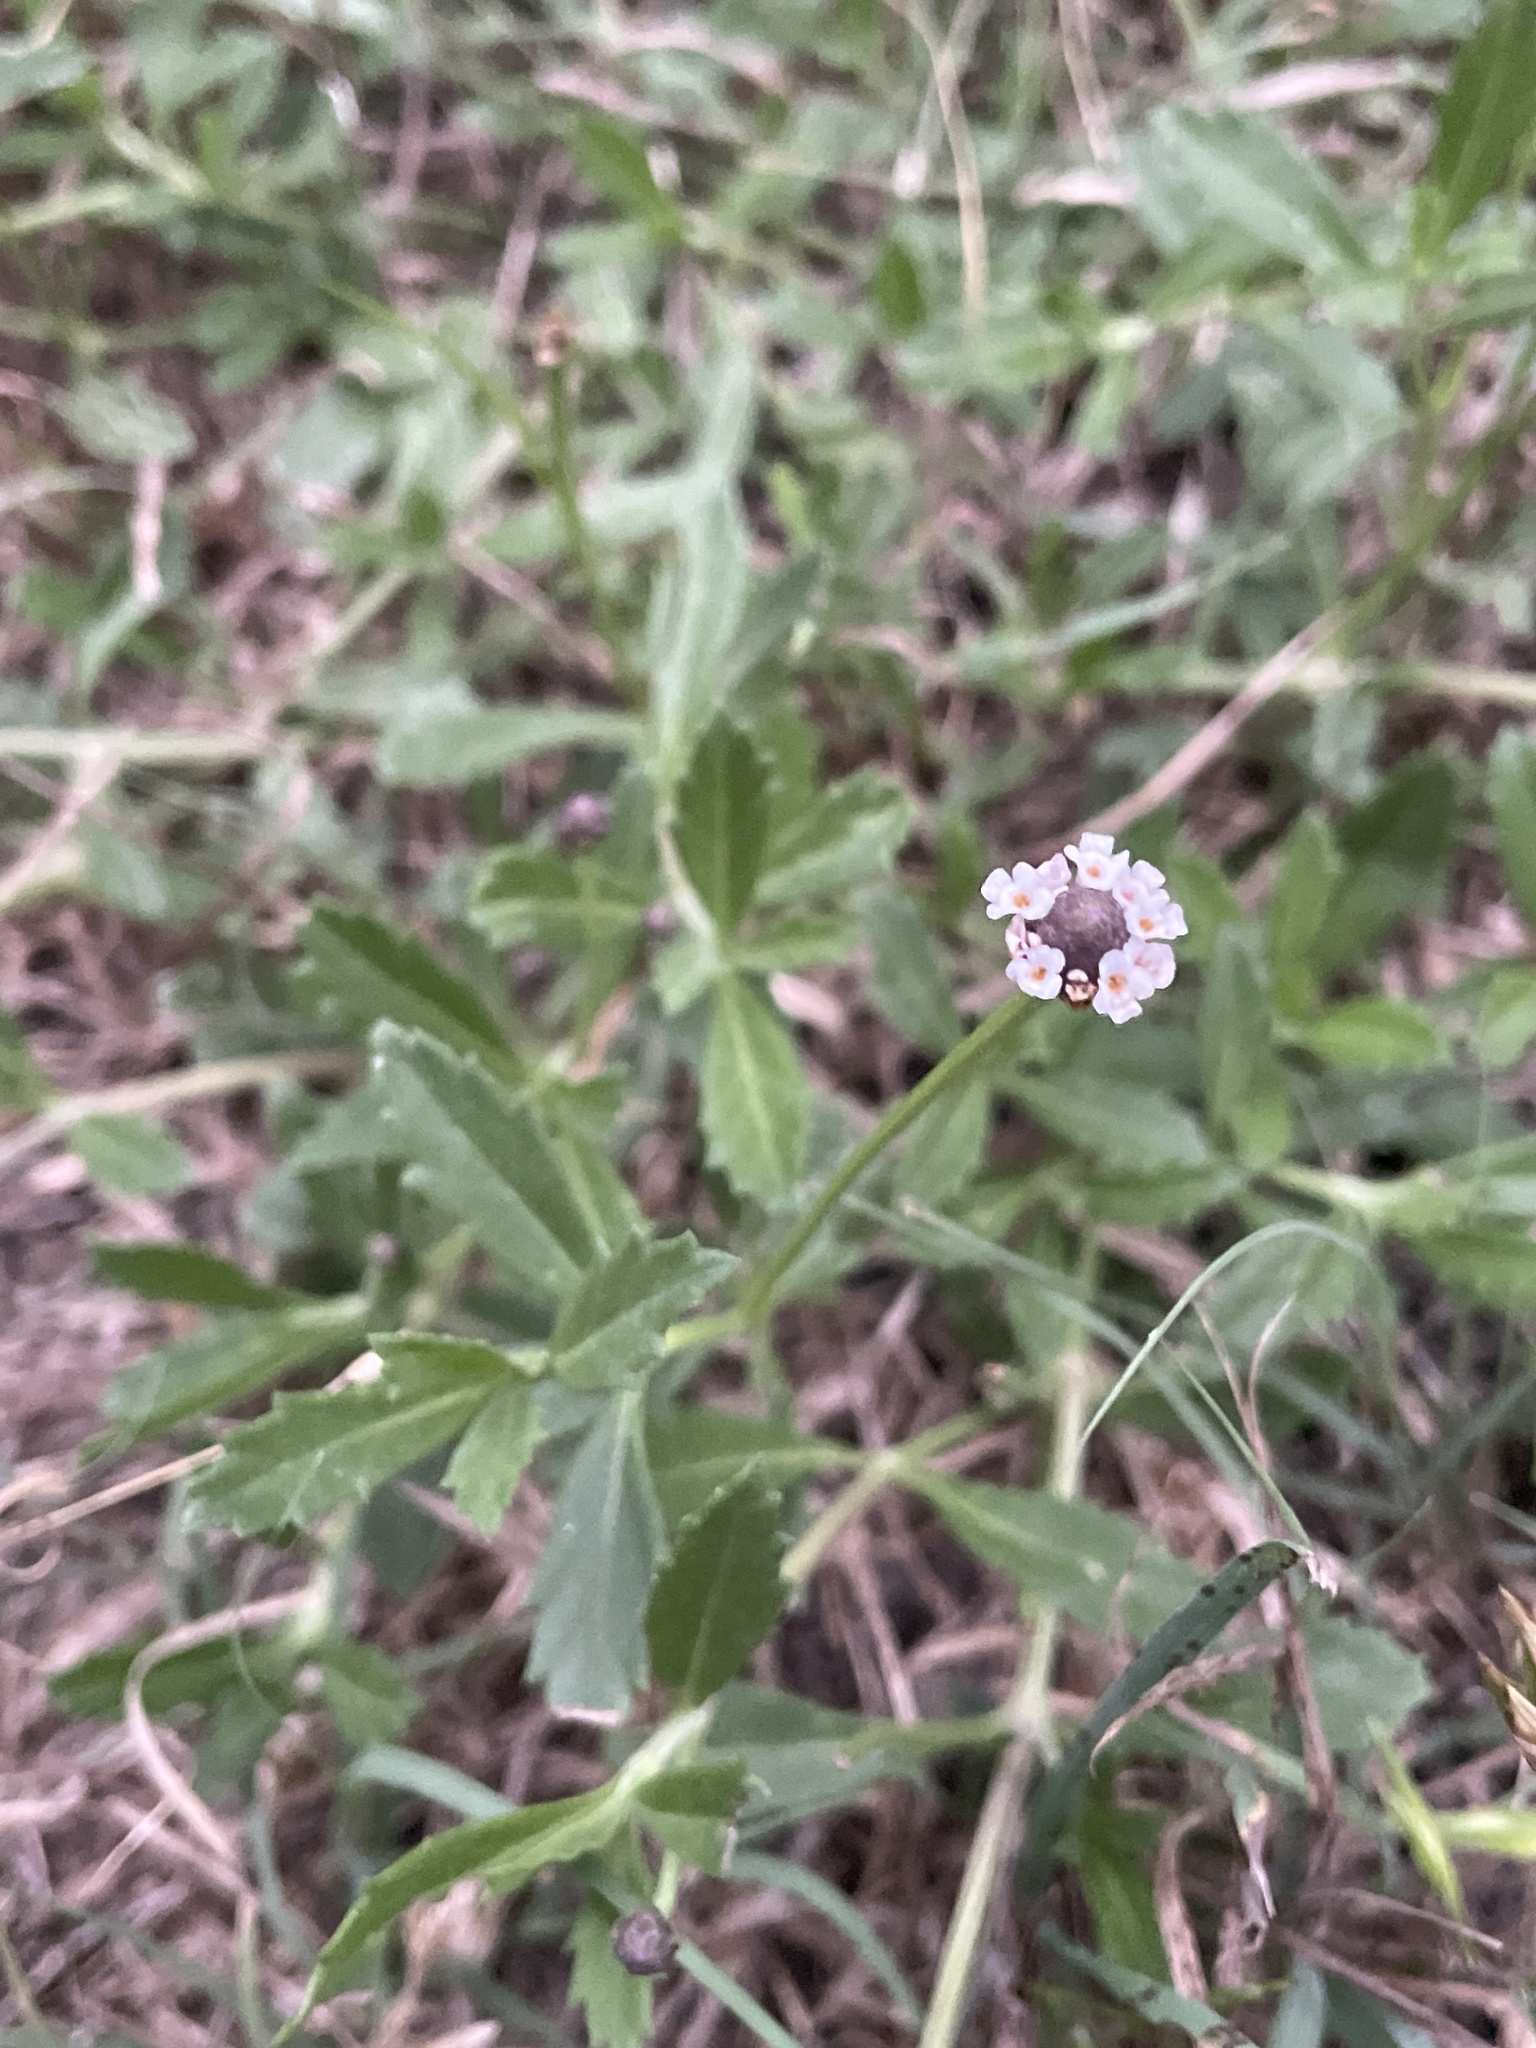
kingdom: Plantae
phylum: Tracheophyta
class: Magnoliopsida
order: Lamiales
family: Verbenaceae
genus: Phyla
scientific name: Phyla nodiflora
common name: Frogfruit
